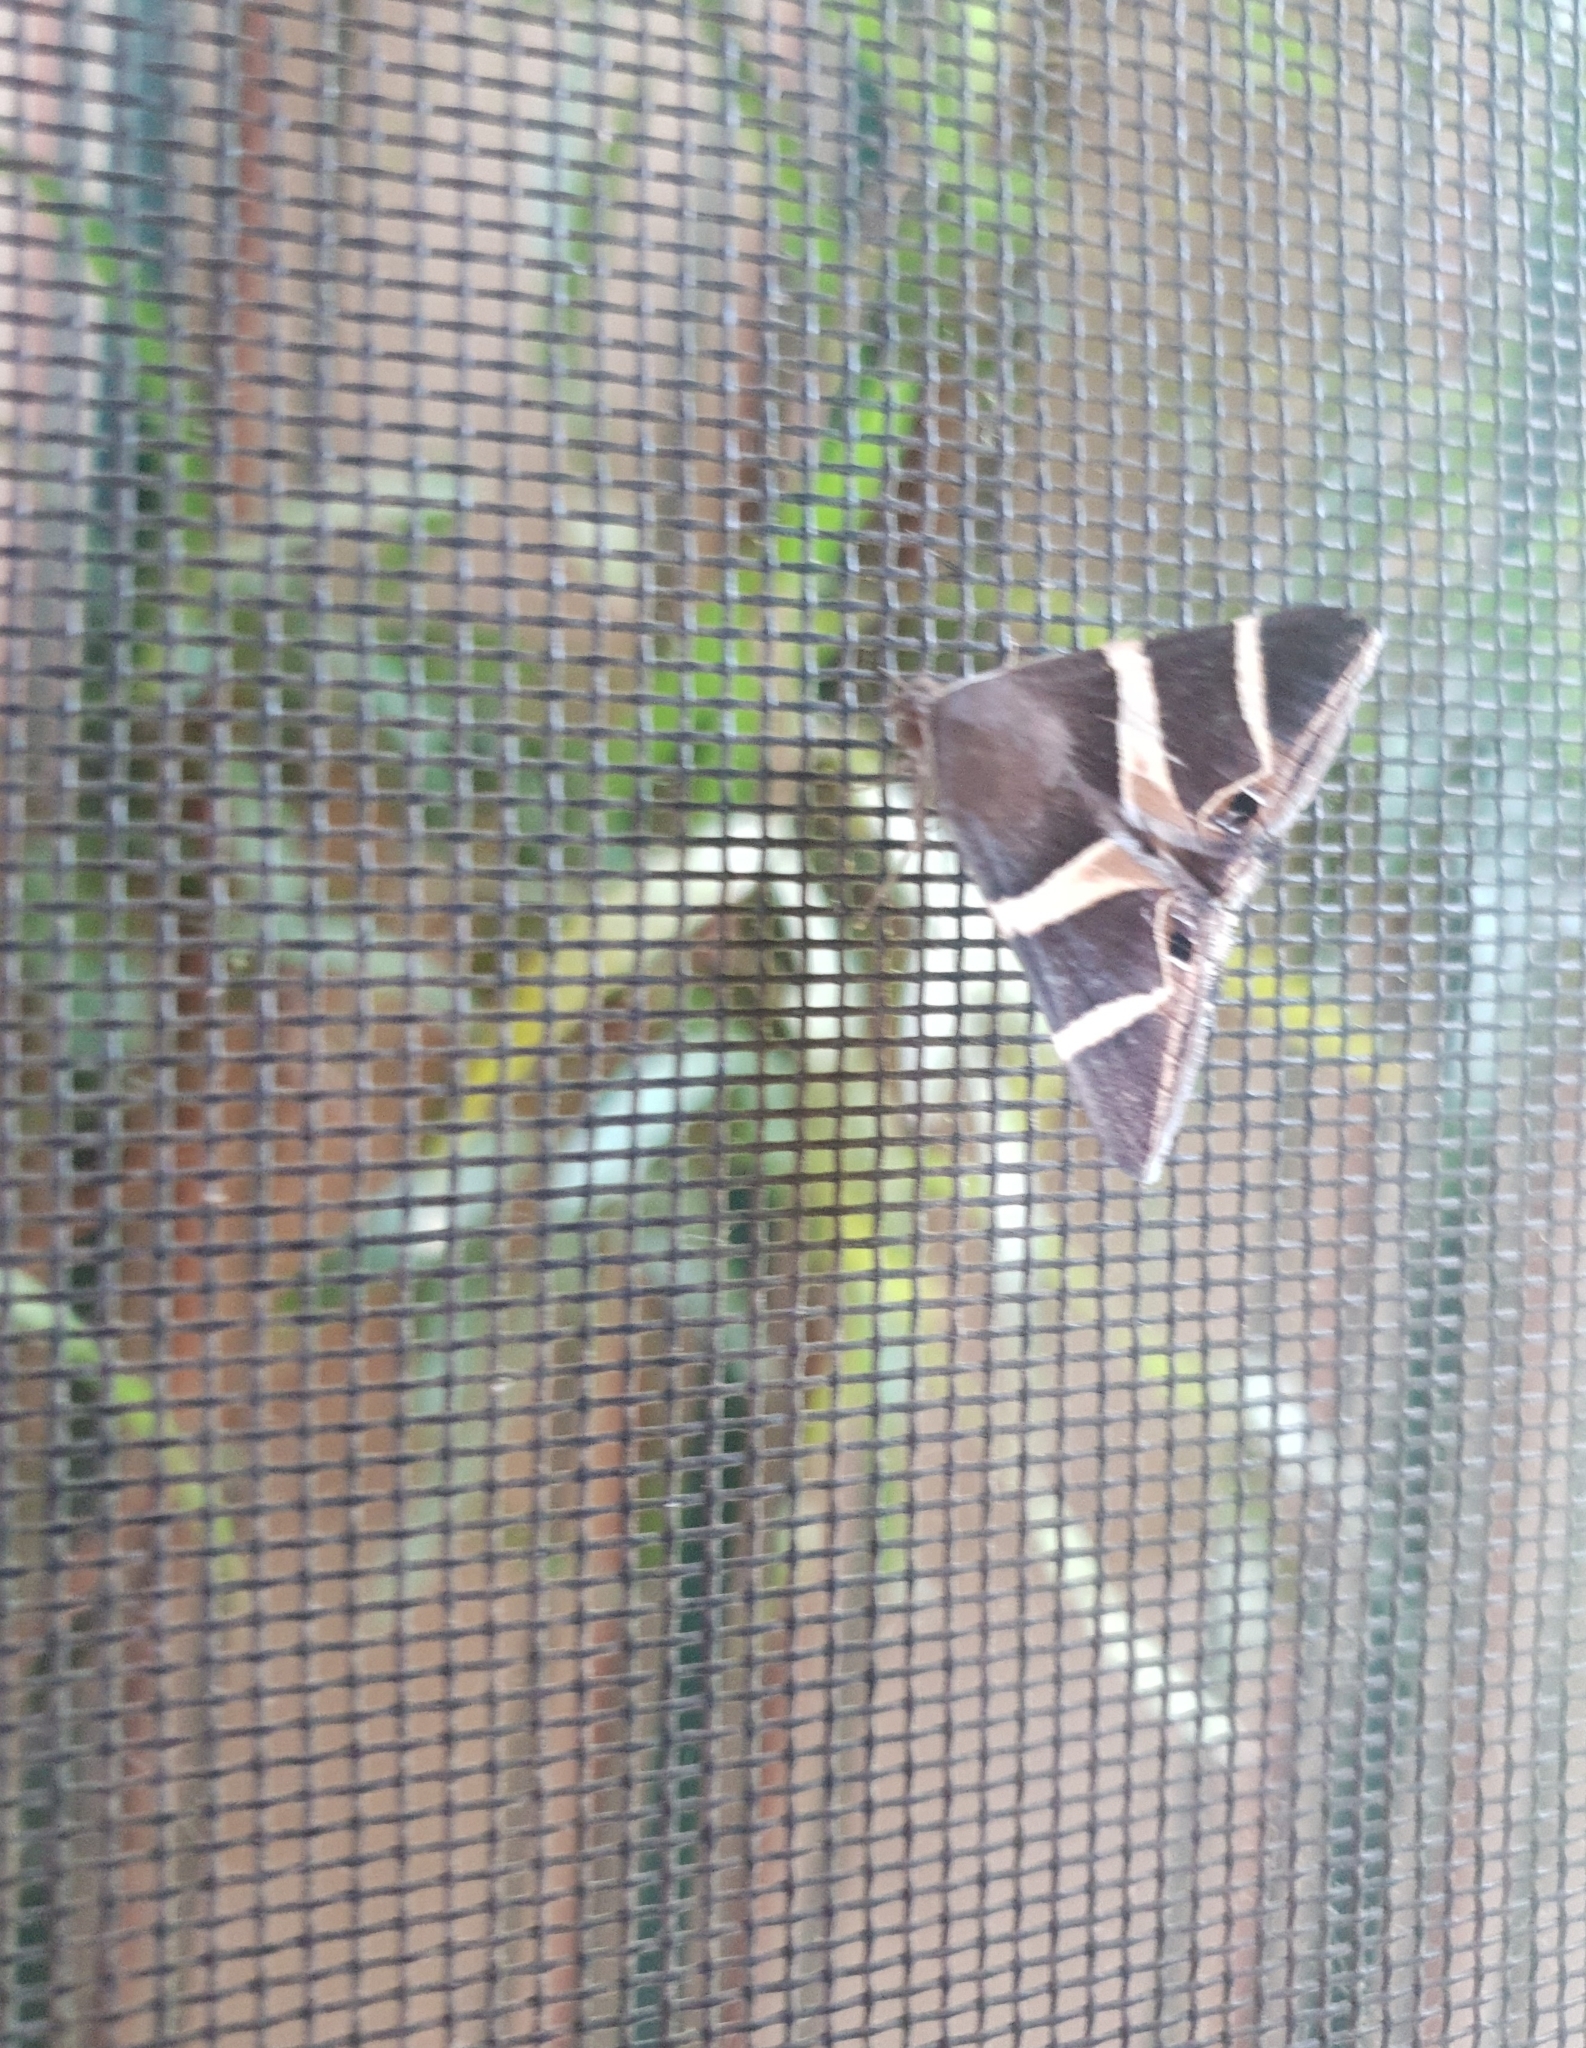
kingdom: Animalia
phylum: Arthropoda
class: Insecta
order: Lepidoptera
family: Erebidae
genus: Grammodes
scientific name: Grammodes oculicola
